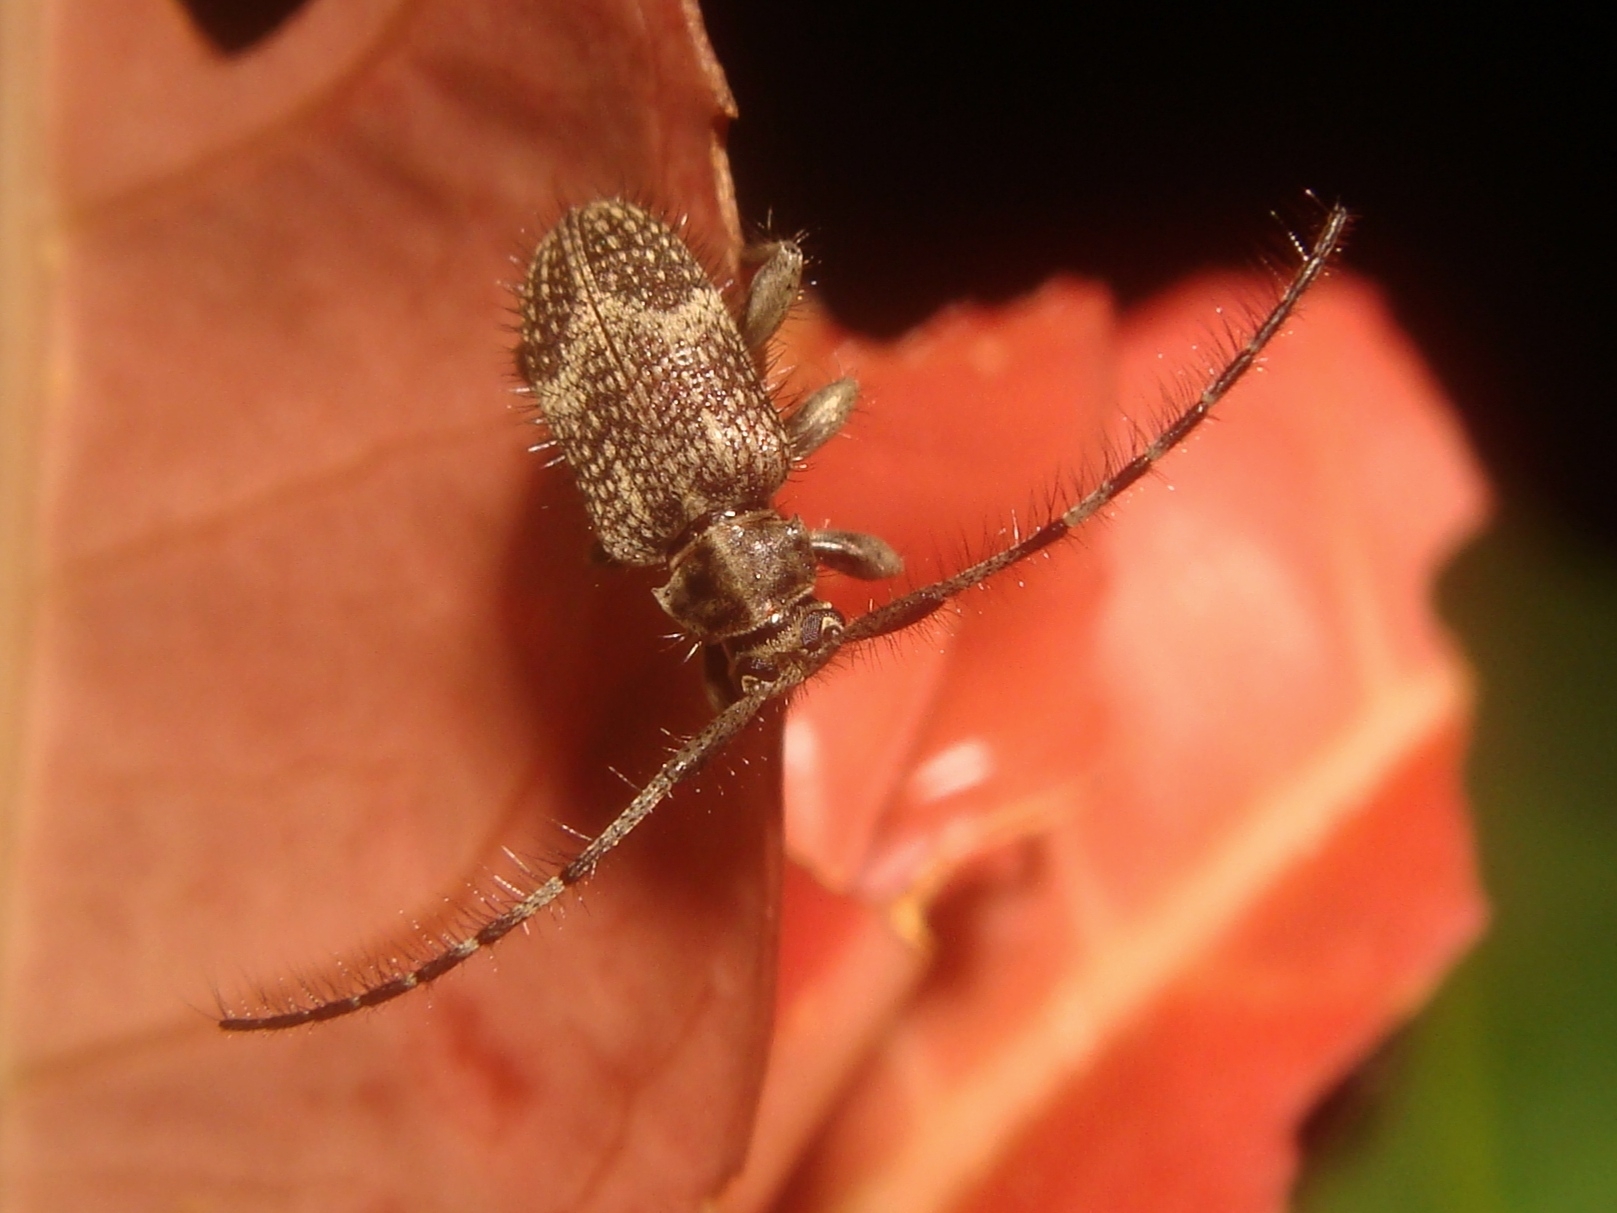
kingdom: Animalia
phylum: Arthropoda
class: Insecta
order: Coleoptera
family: Cerambycidae
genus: Exocentrus
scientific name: Exocentrus alboguttatus
